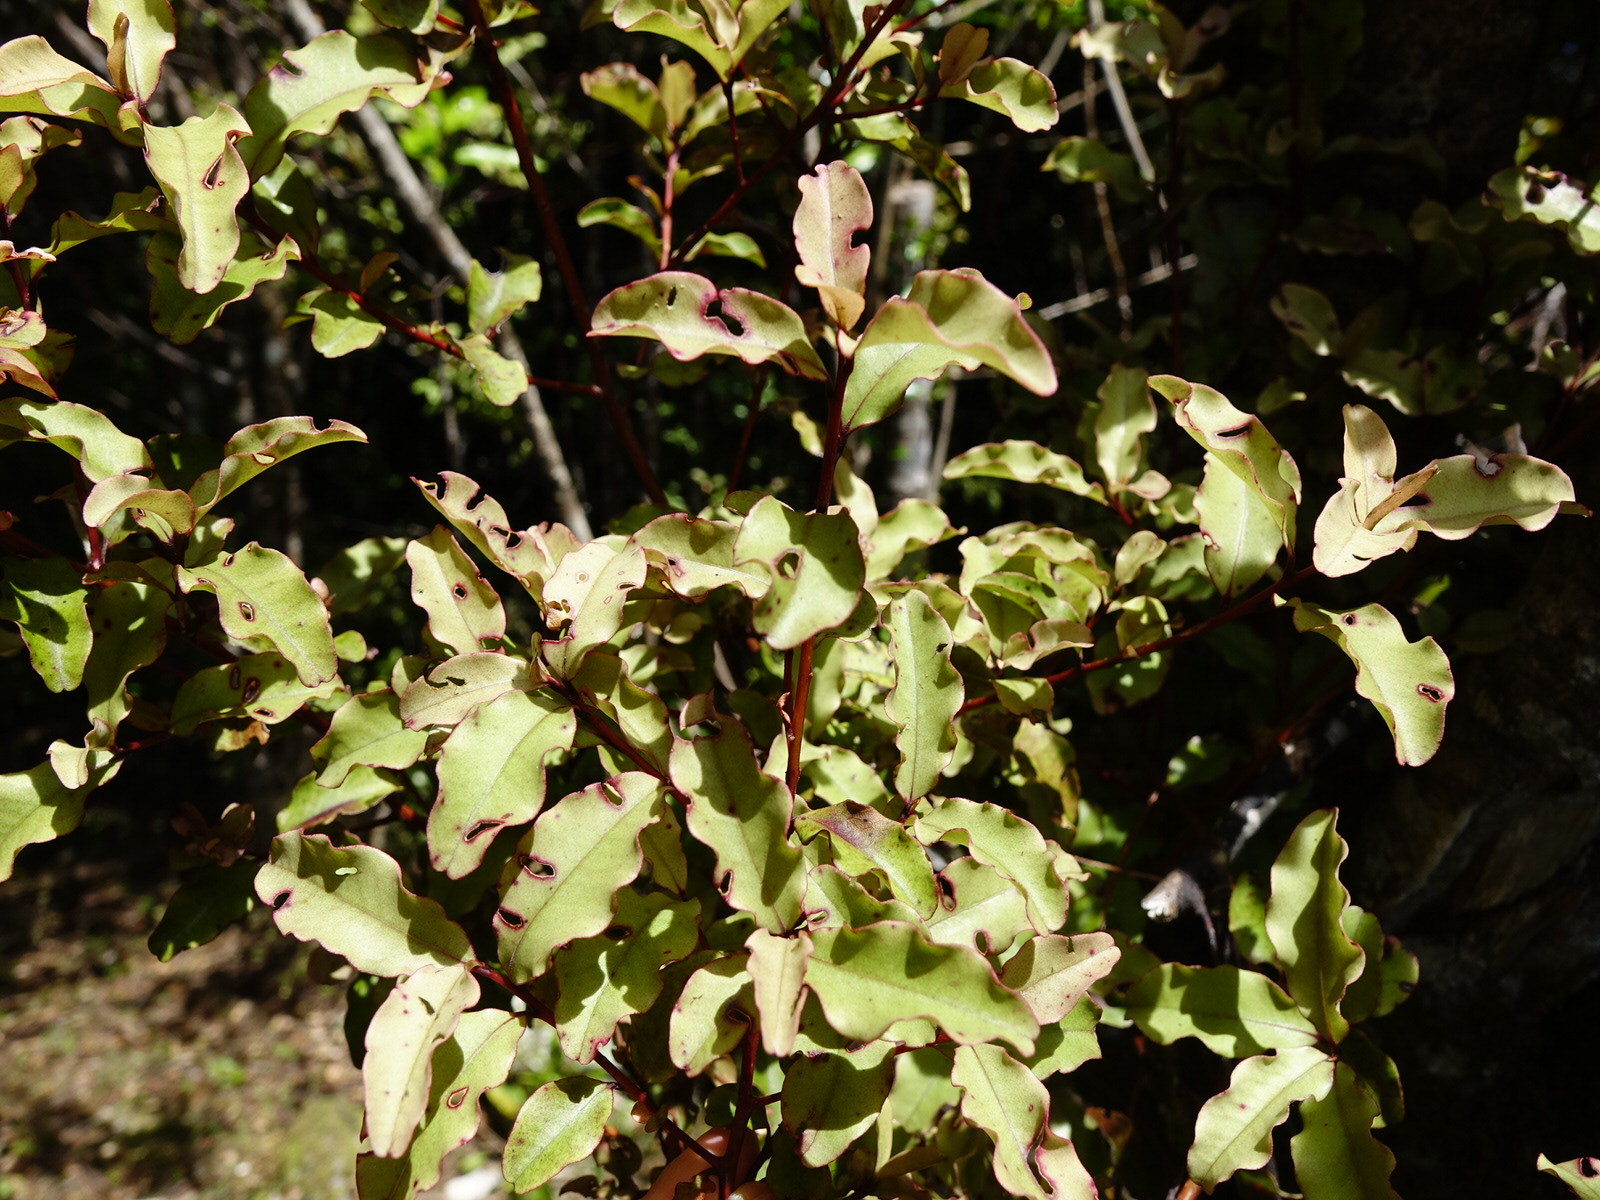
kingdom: Plantae
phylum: Tracheophyta
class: Magnoliopsida
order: Ericales
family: Primulaceae
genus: Myrsine
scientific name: Myrsine australis
